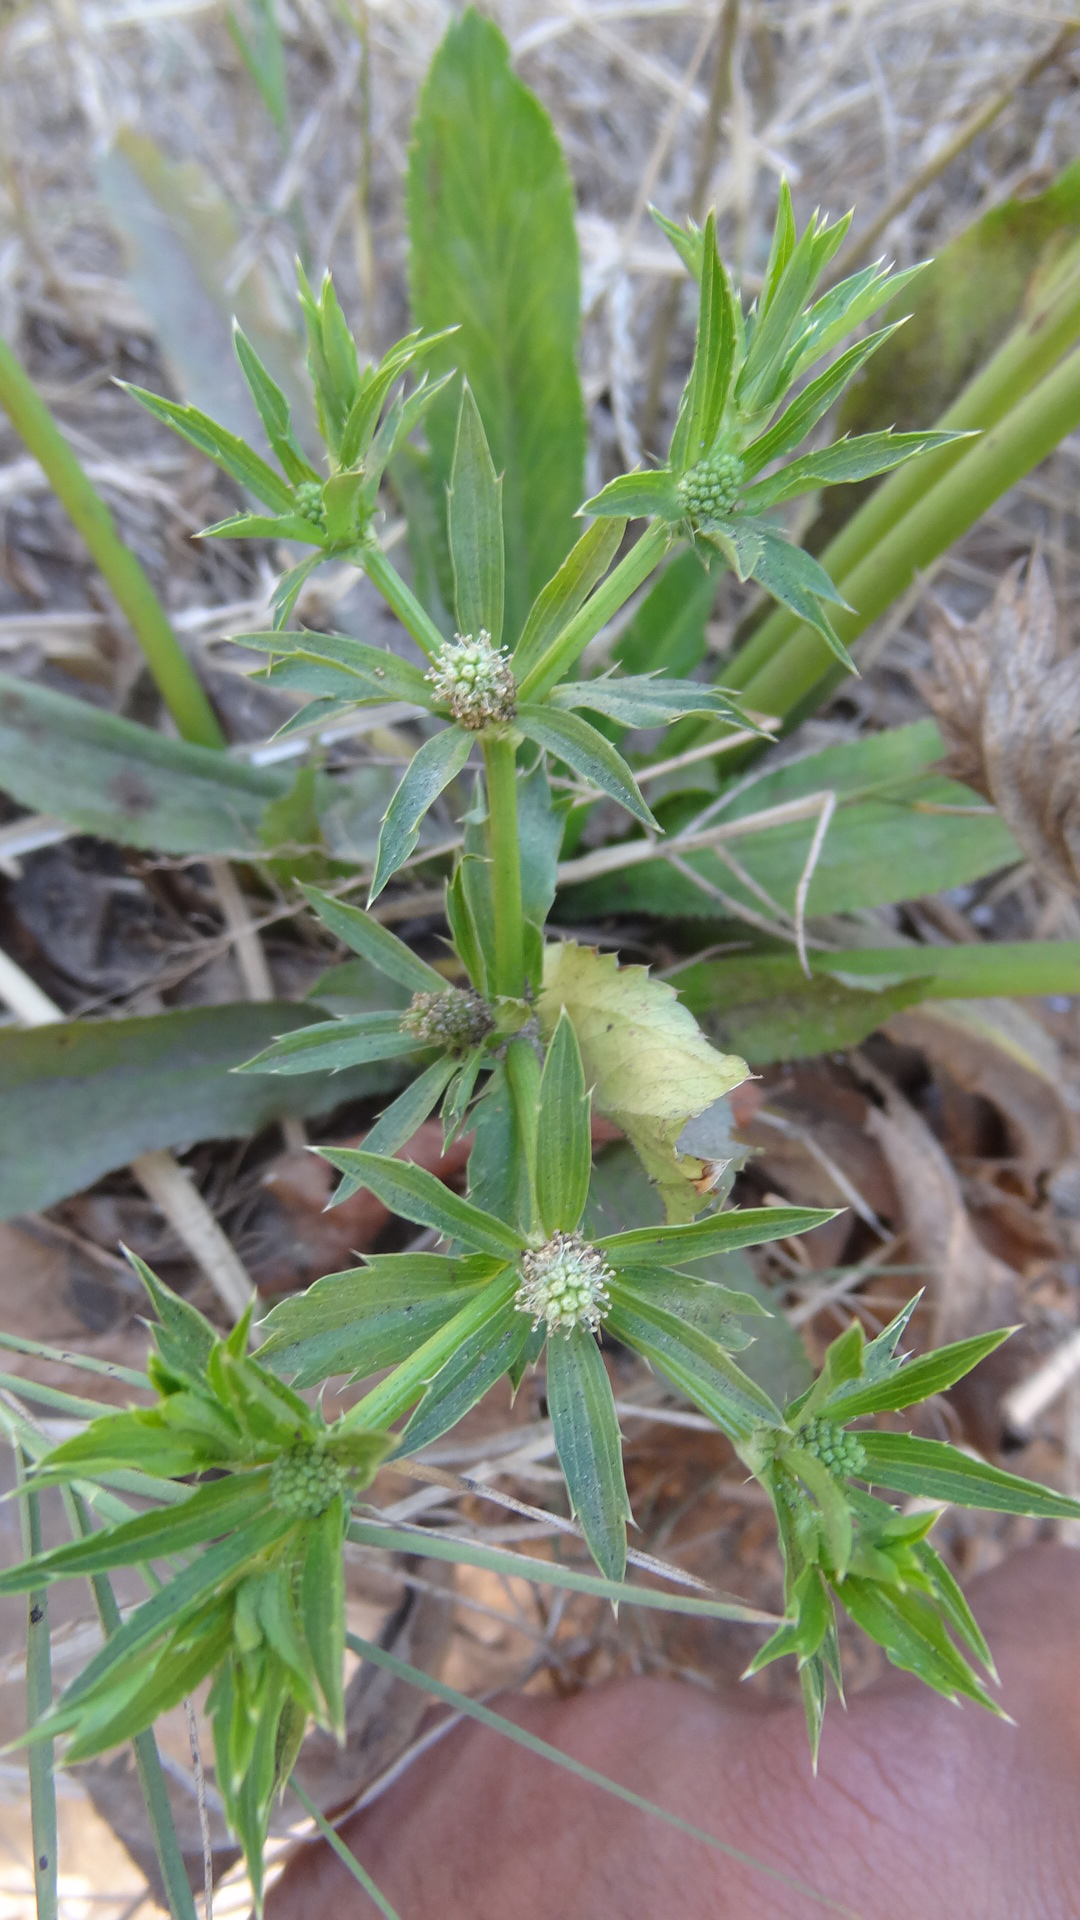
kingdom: Plantae
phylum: Tracheophyta
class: Magnoliopsida
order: Apiales
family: Apiaceae
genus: Eryngium
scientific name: Eryngium foetidum
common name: Fitweed
